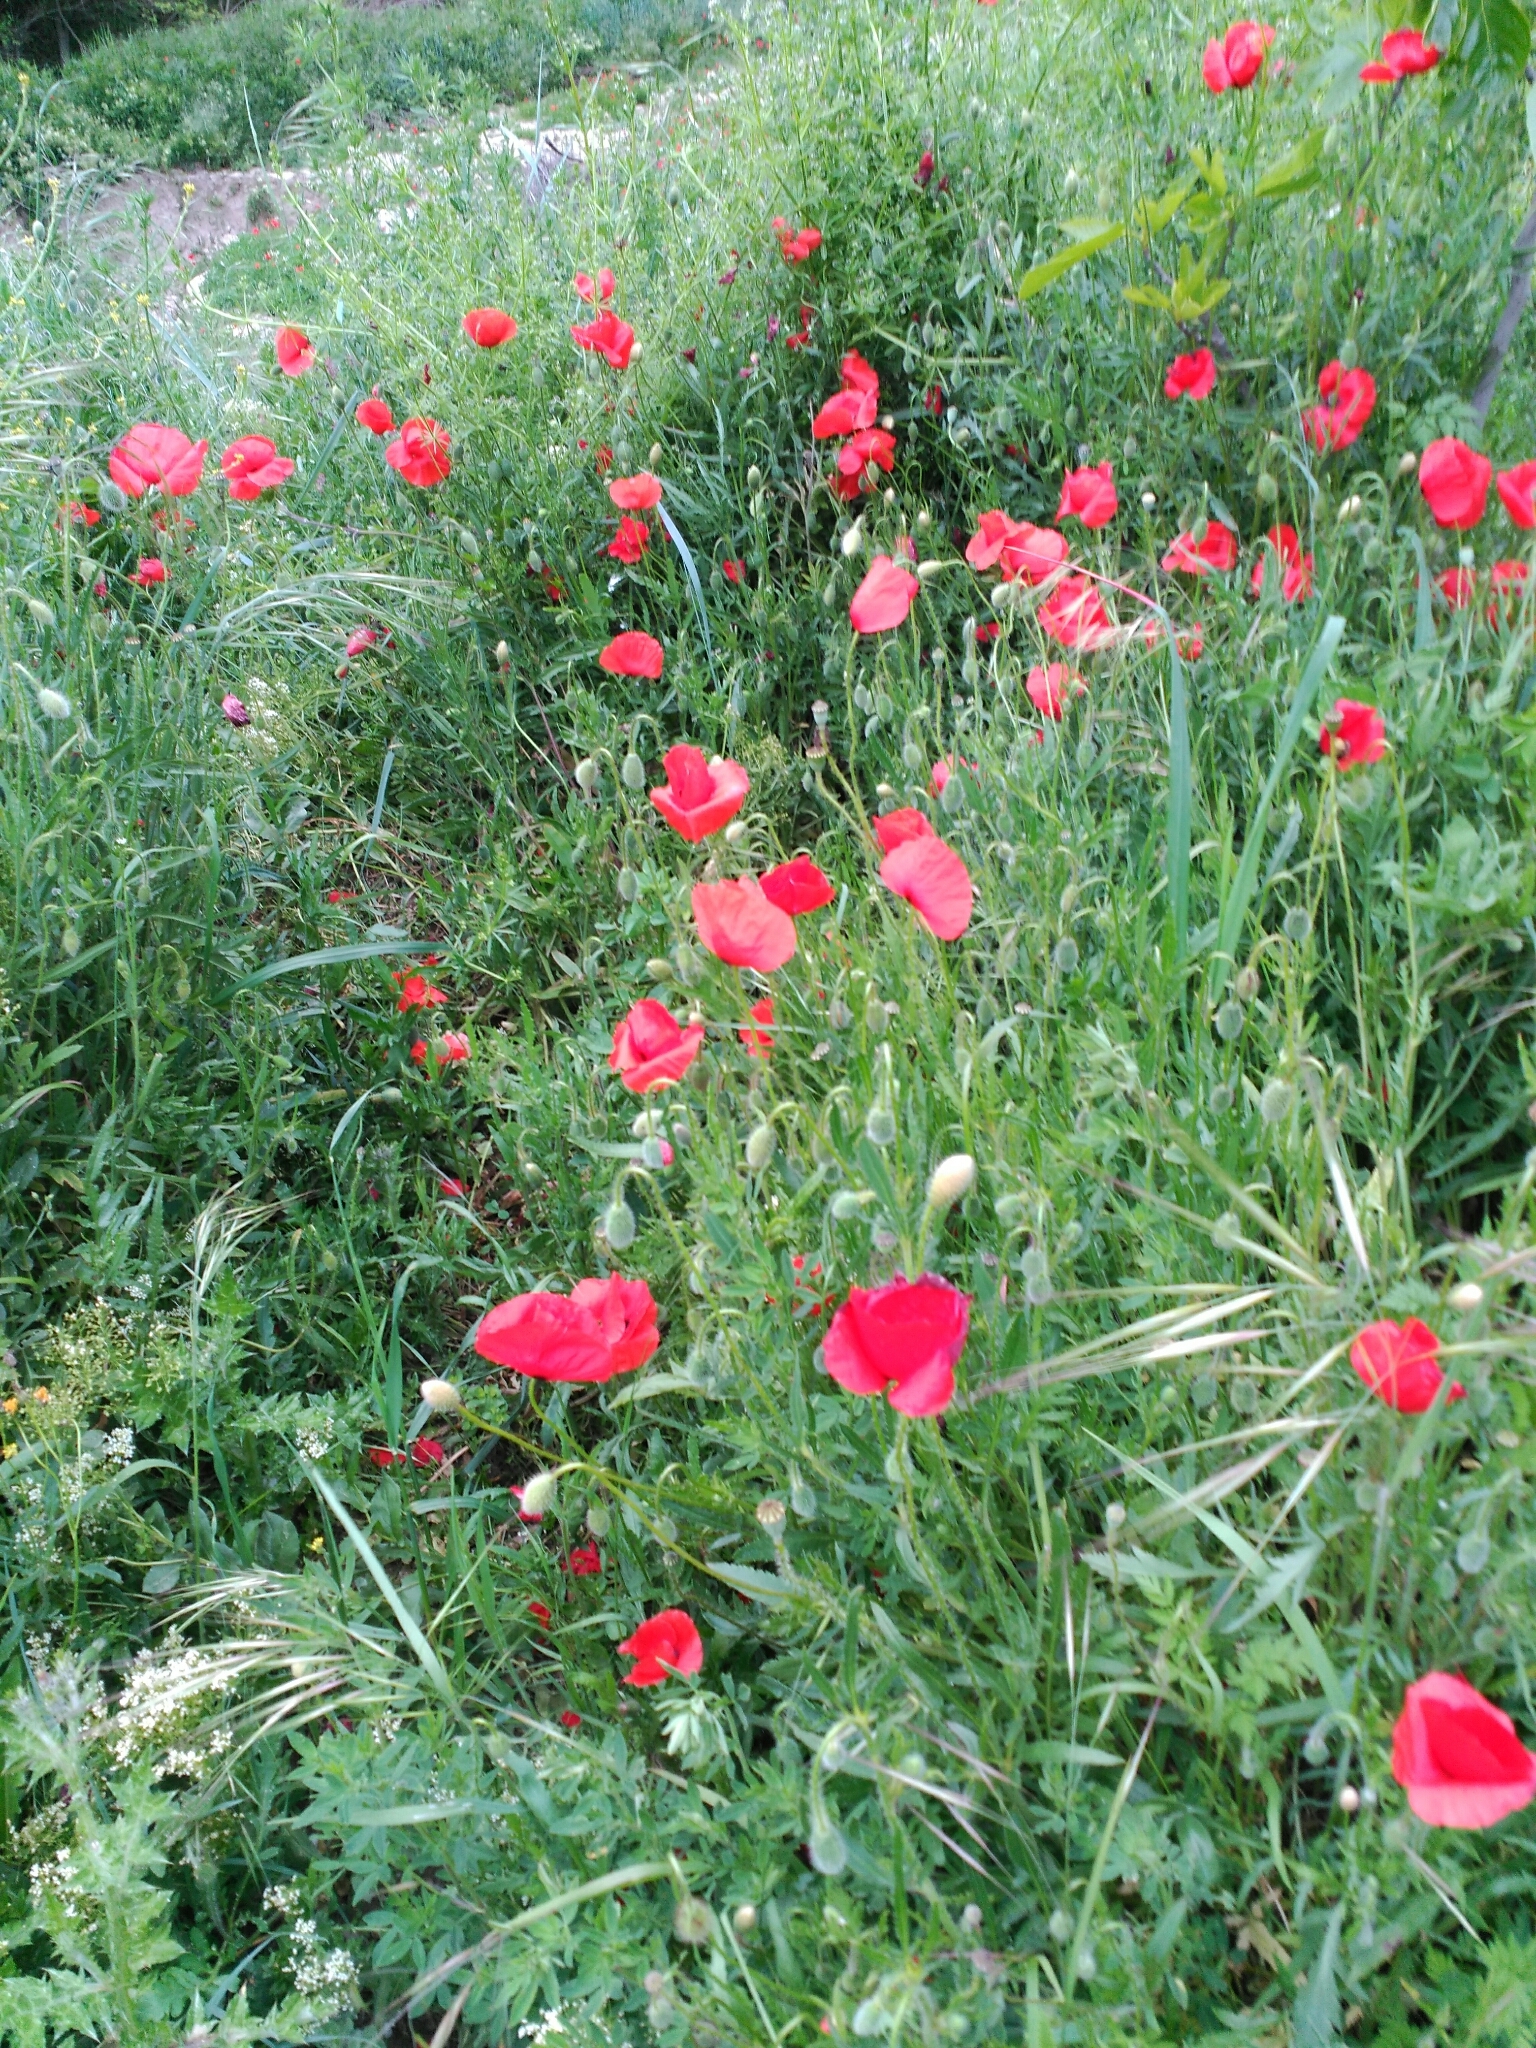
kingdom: Plantae
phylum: Tracheophyta
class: Magnoliopsida
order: Ranunculales
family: Papaveraceae
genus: Papaver
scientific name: Papaver rhoeas
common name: Corn poppy
